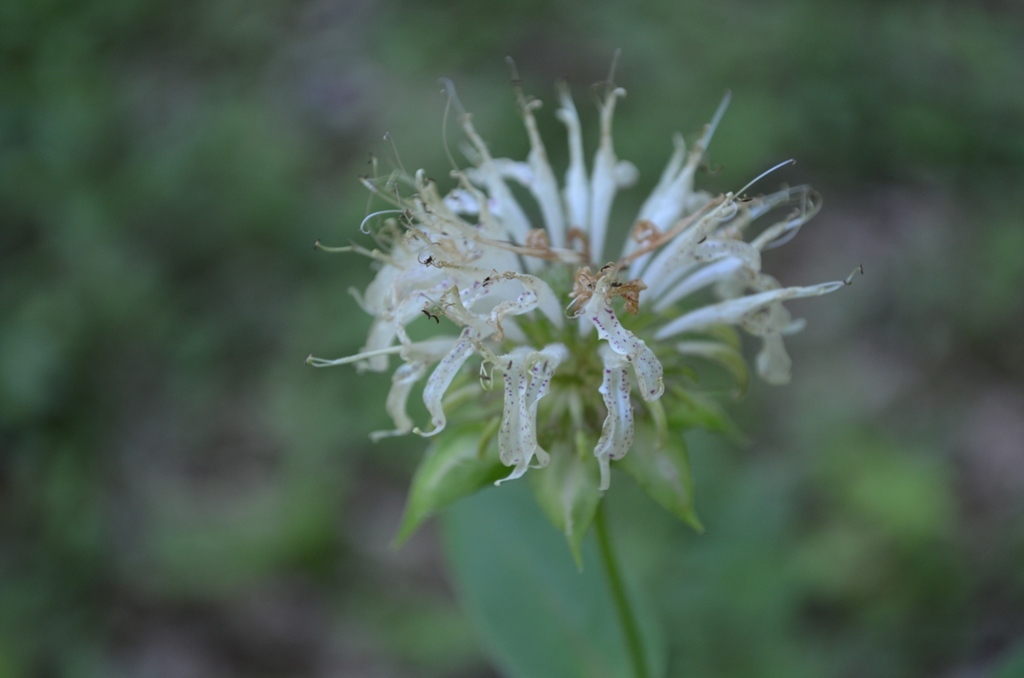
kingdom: Plantae
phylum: Tracheophyta
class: Magnoliopsida
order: Lamiales
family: Lamiaceae
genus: Monarda
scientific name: Monarda clinopodia
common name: Basil beebalm
